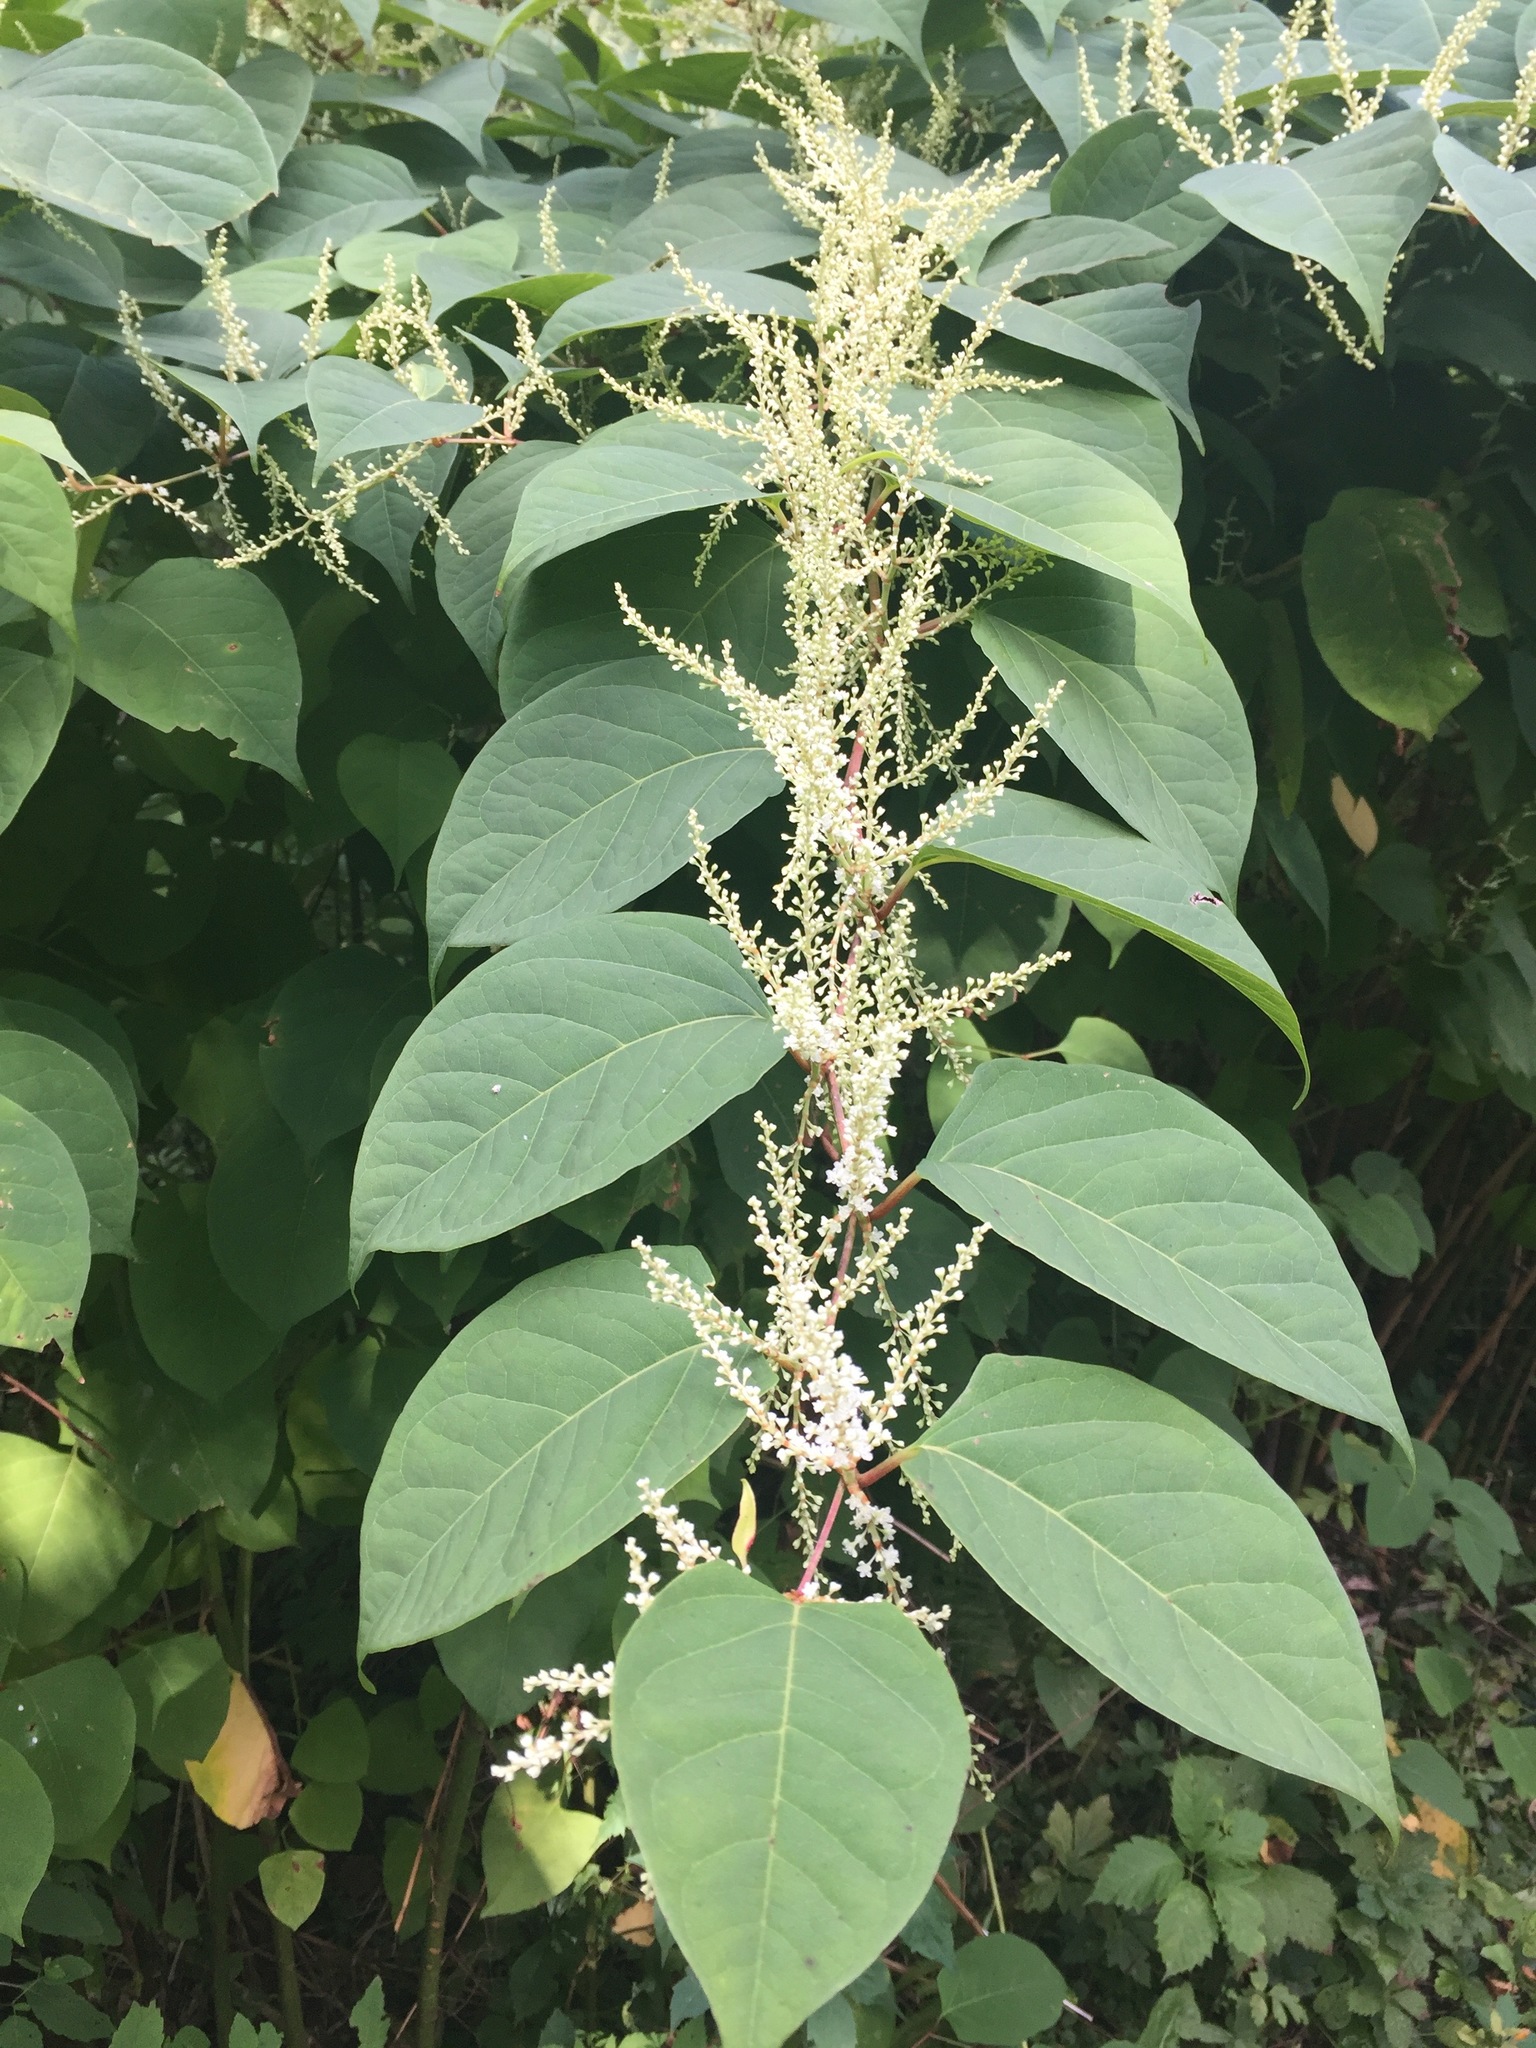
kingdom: Plantae
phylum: Tracheophyta
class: Magnoliopsida
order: Caryophyllales
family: Polygonaceae
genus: Reynoutria
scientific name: Reynoutria japonica
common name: Japanese knotweed
